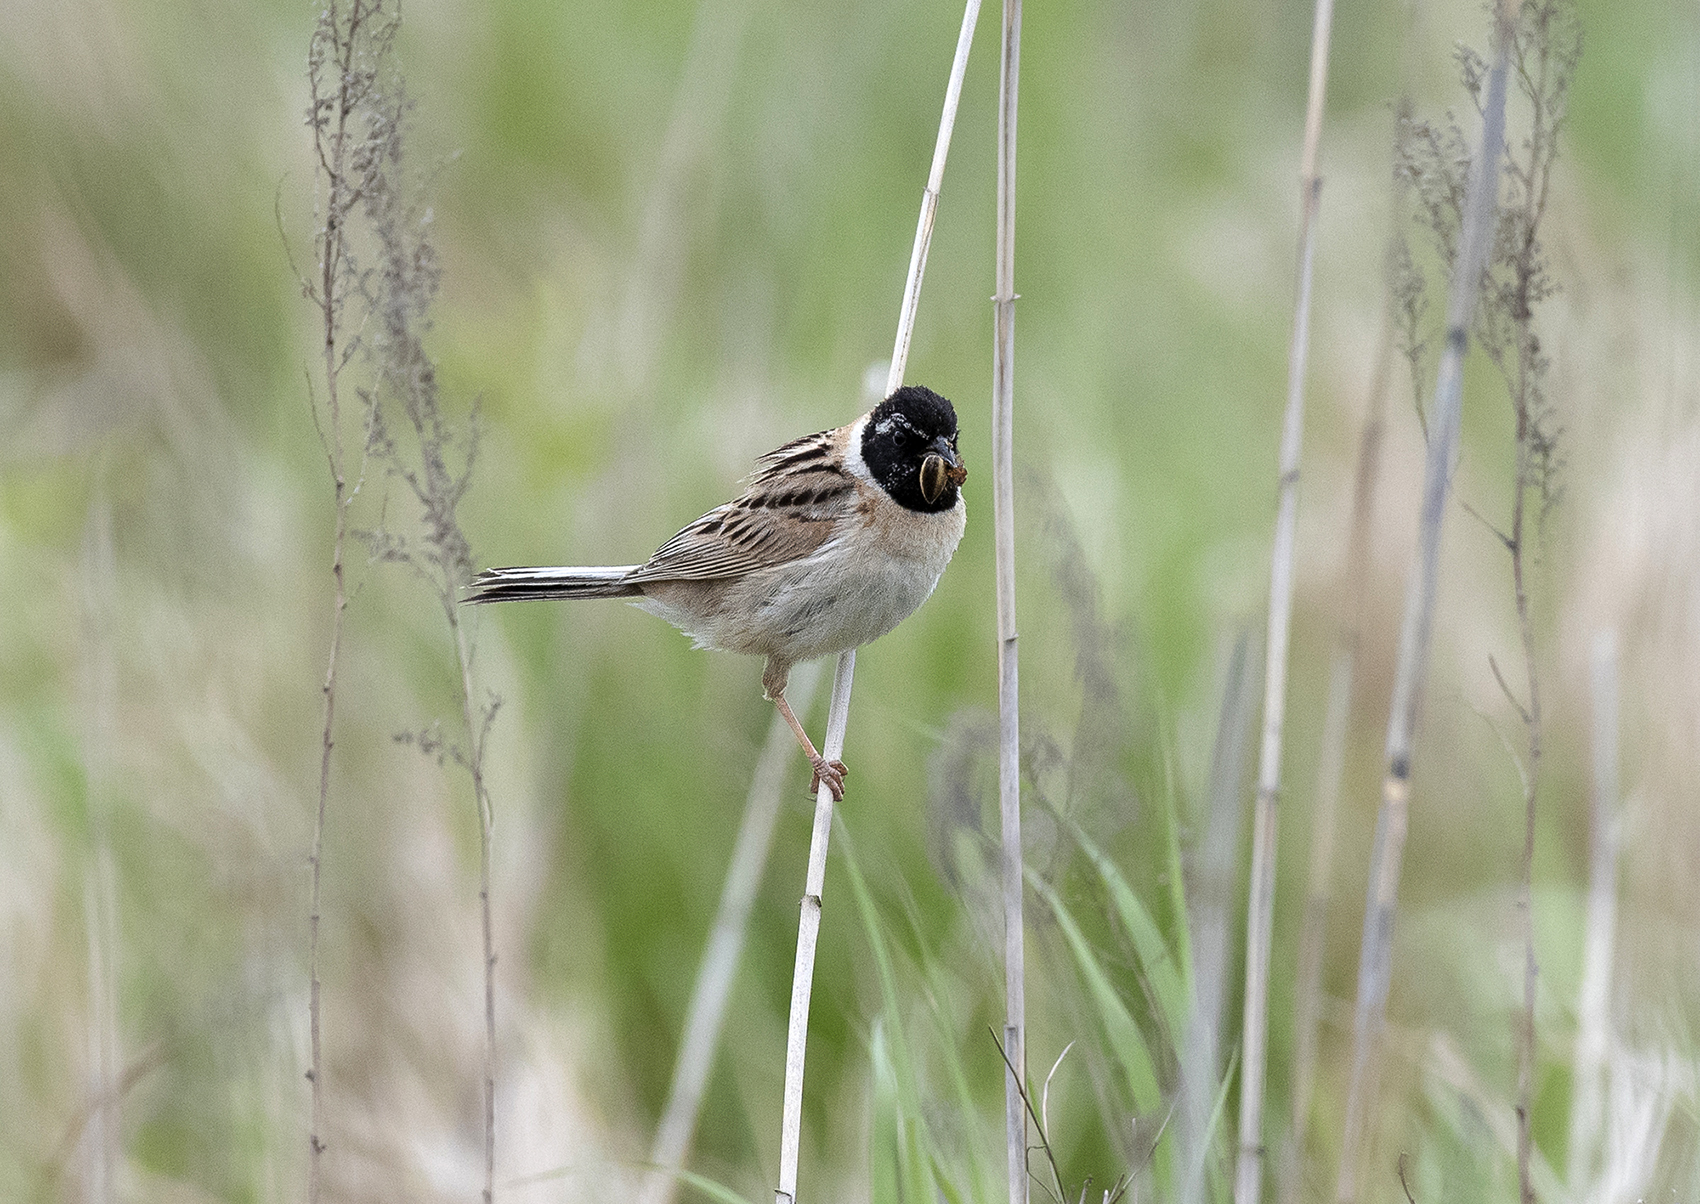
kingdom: Animalia
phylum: Chordata
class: Aves
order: Passeriformes
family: Emberizidae
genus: Emberiza
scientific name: Emberiza yessoensis
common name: Japanese reed bunting
